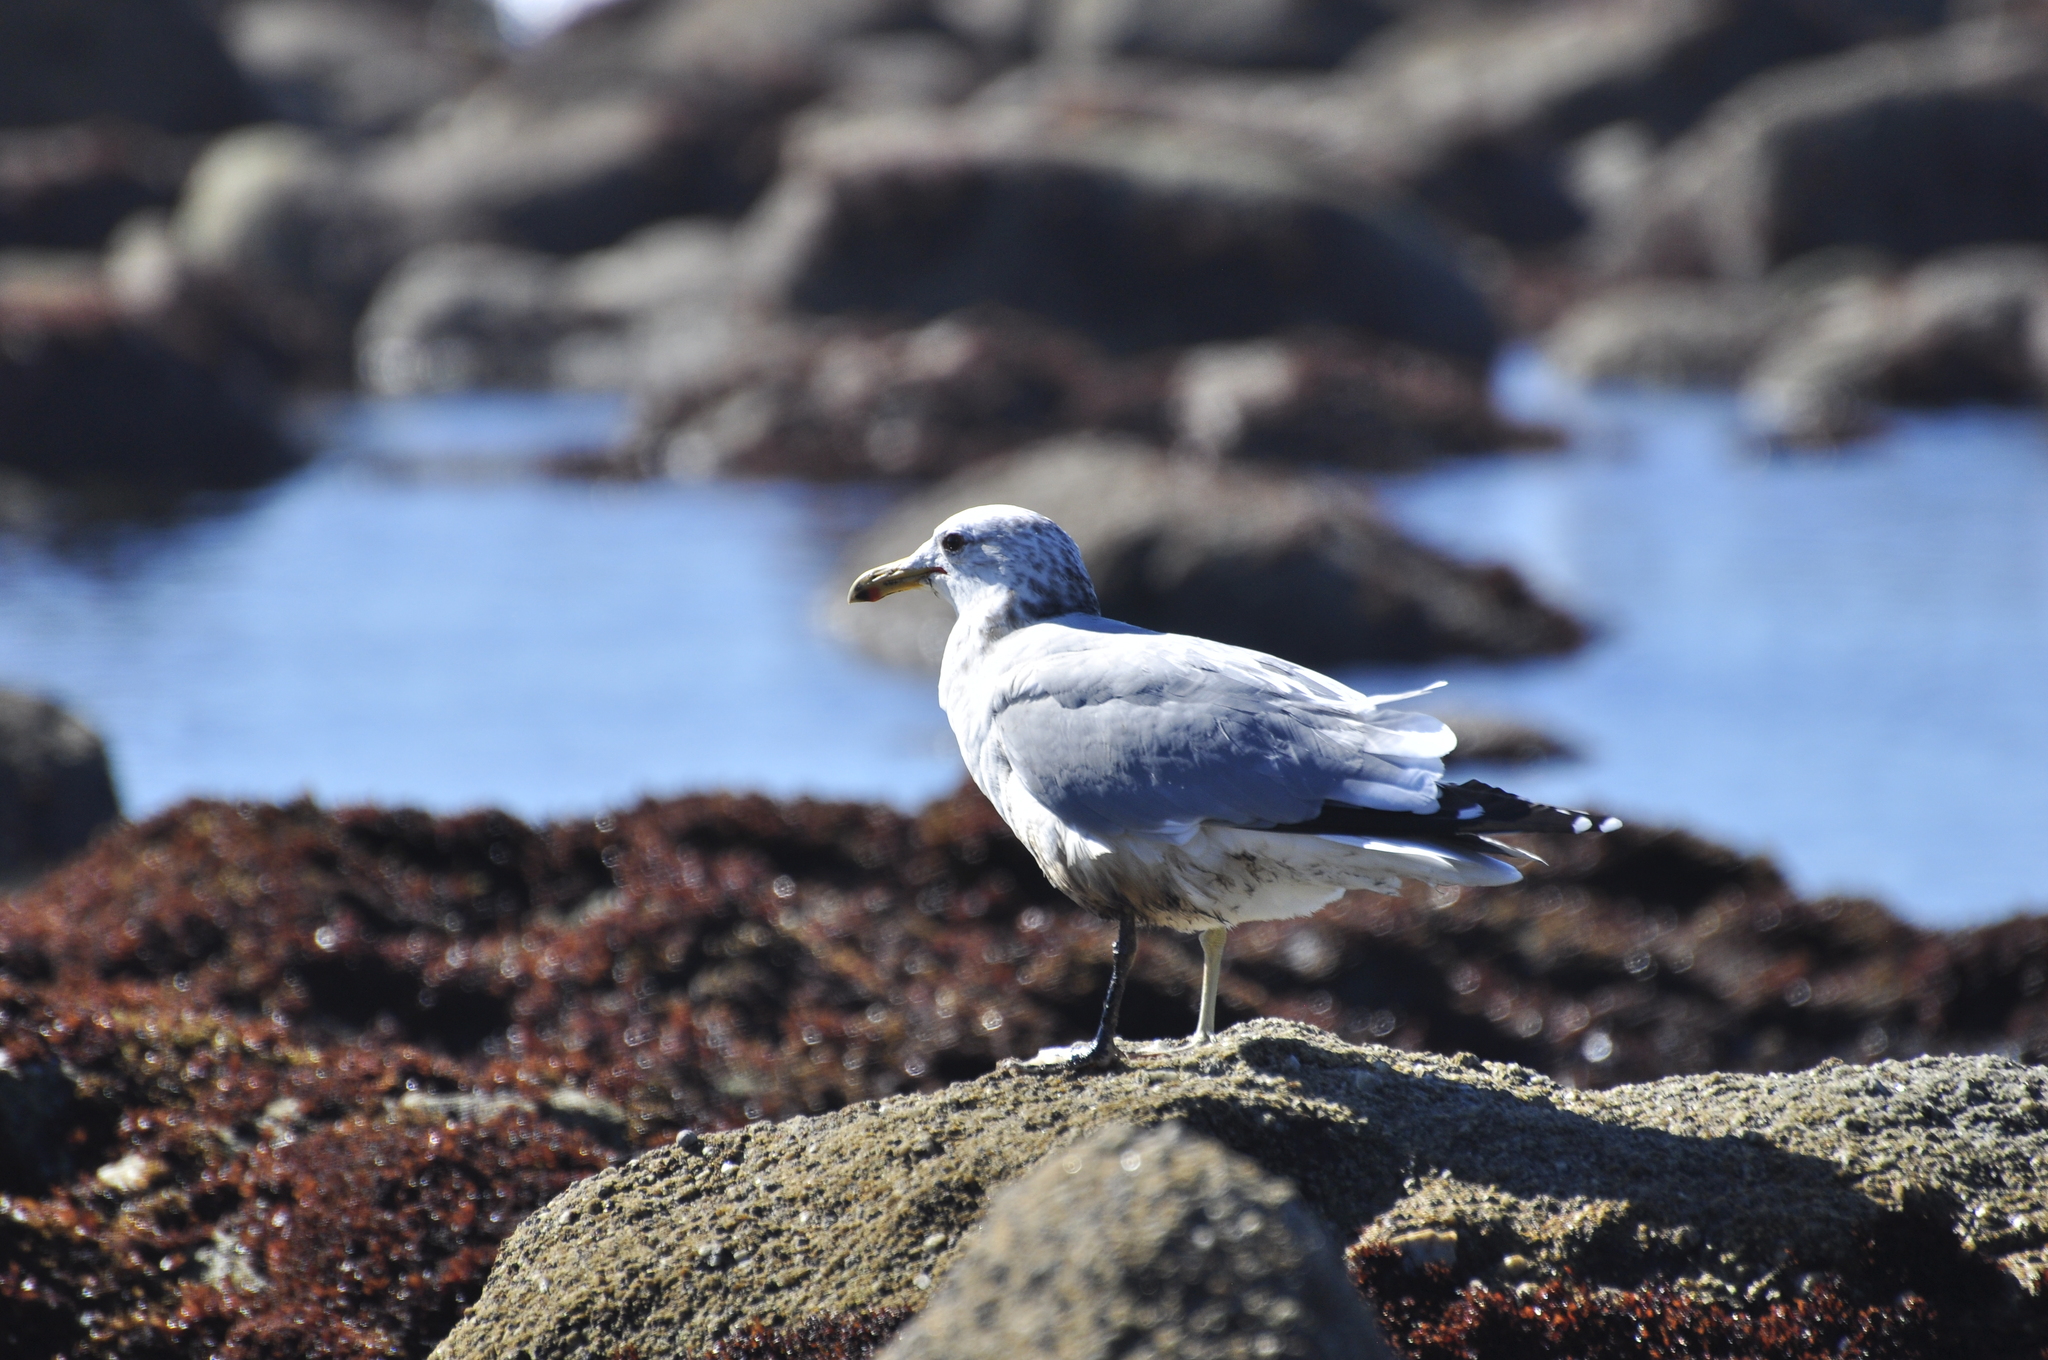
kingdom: Animalia
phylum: Chordata
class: Aves
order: Charadriiformes
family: Laridae
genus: Larus
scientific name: Larus californicus
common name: California gull
